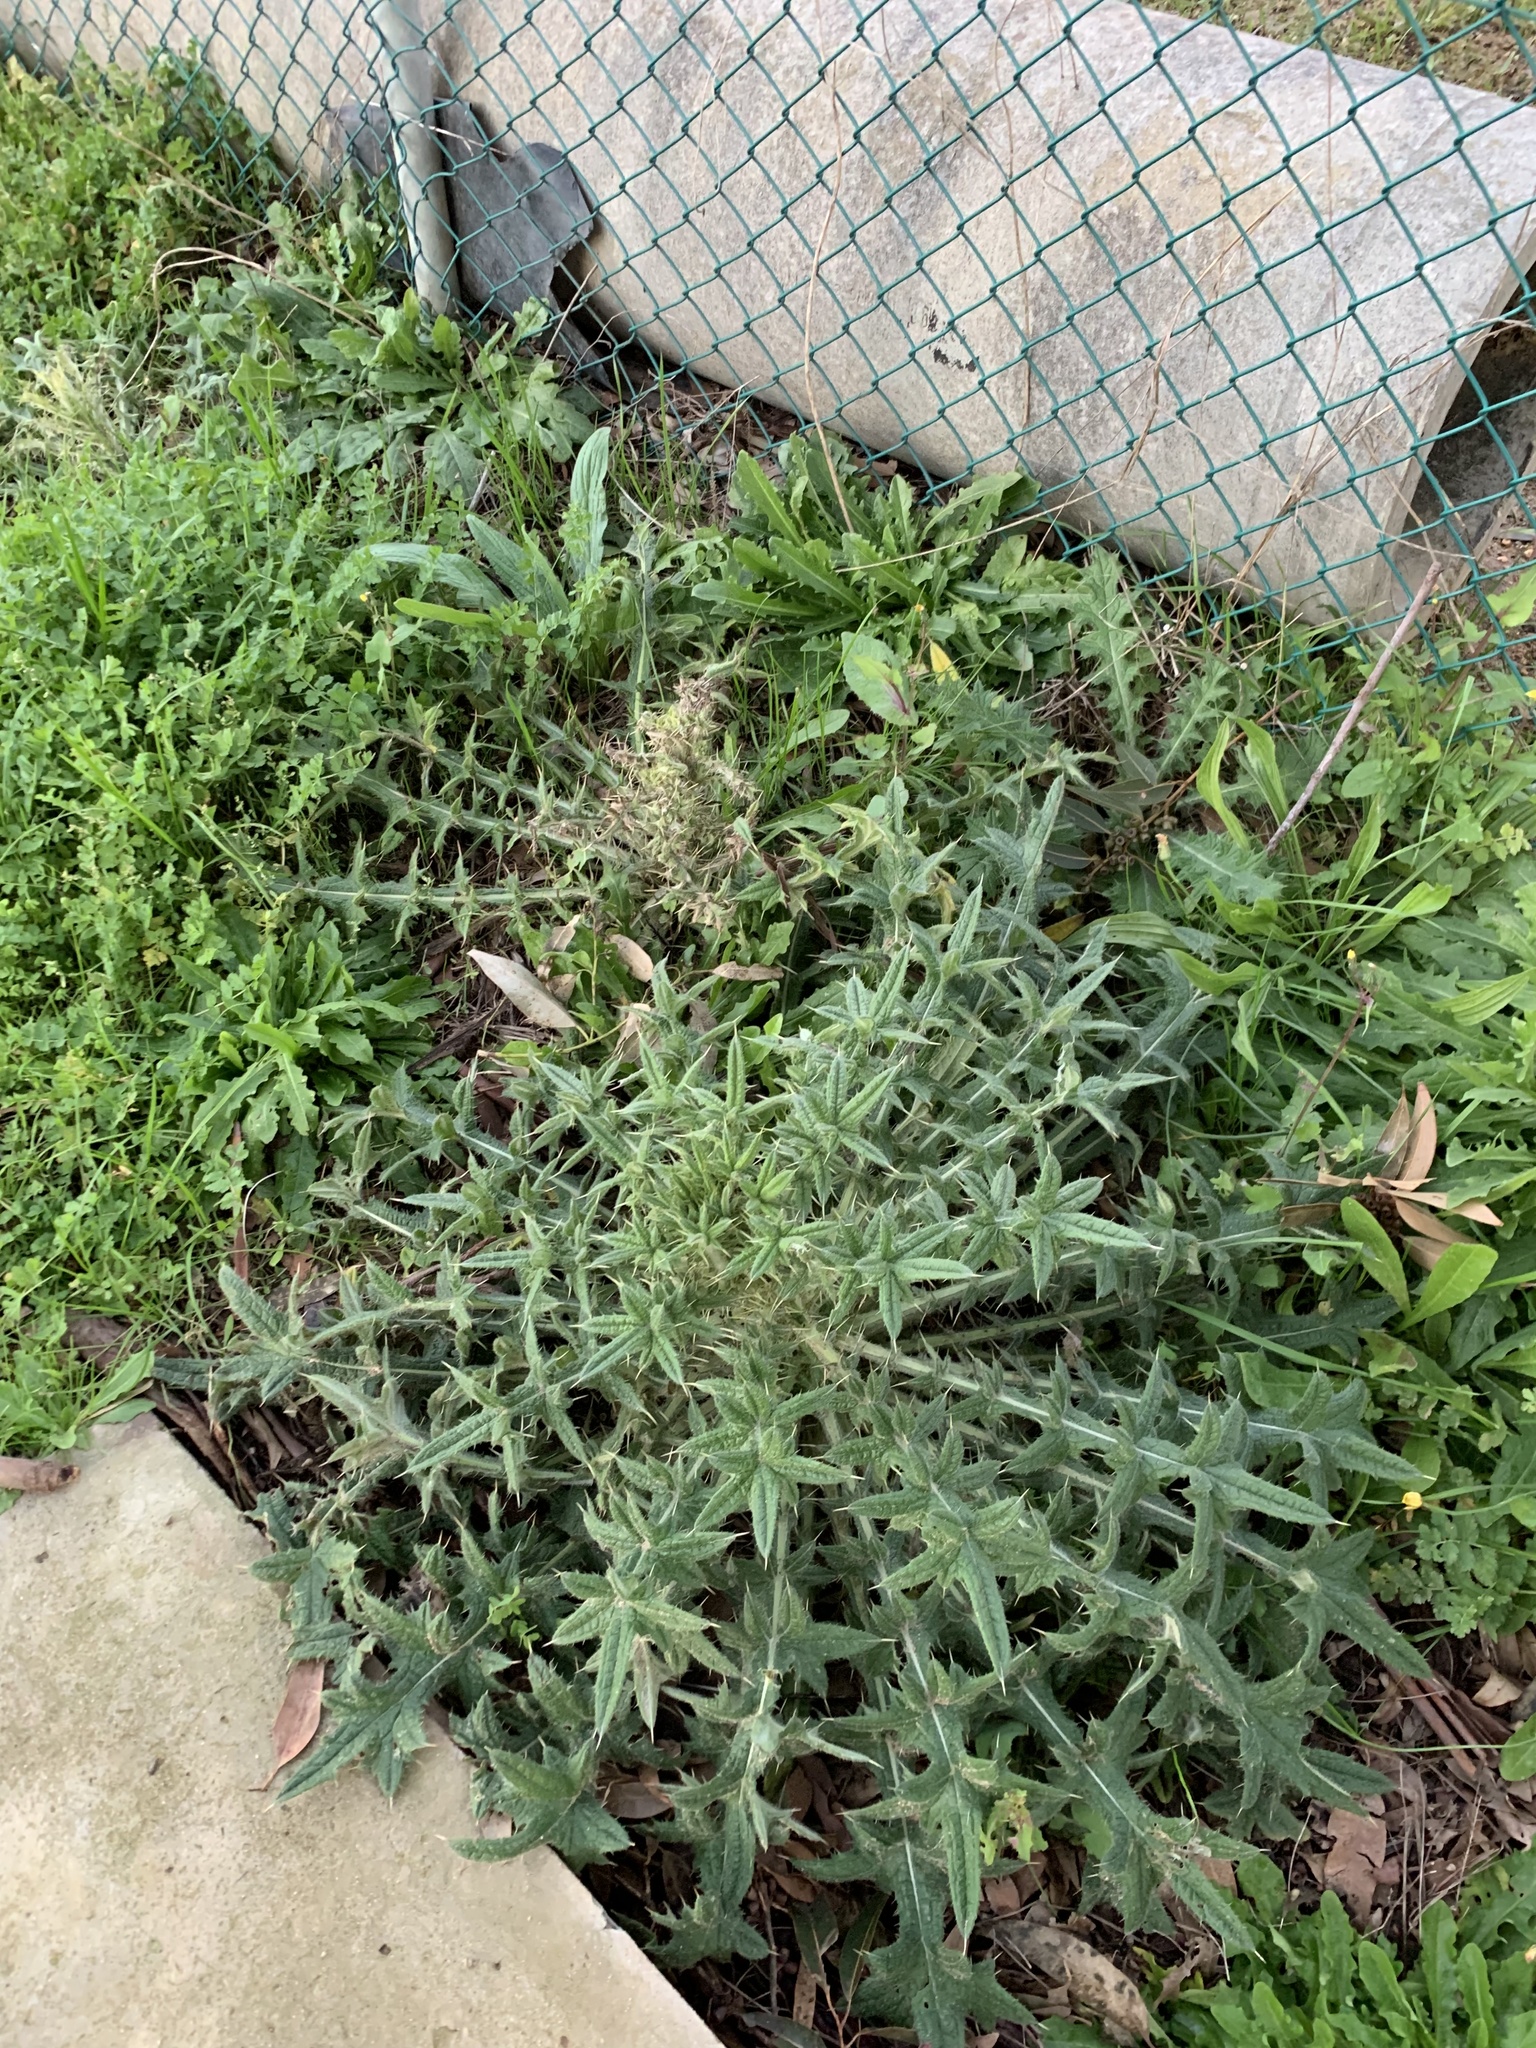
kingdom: Plantae
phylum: Tracheophyta
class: Magnoliopsida
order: Asterales
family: Asteraceae
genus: Cirsium
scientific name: Cirsium vulgare
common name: Bull thistle
